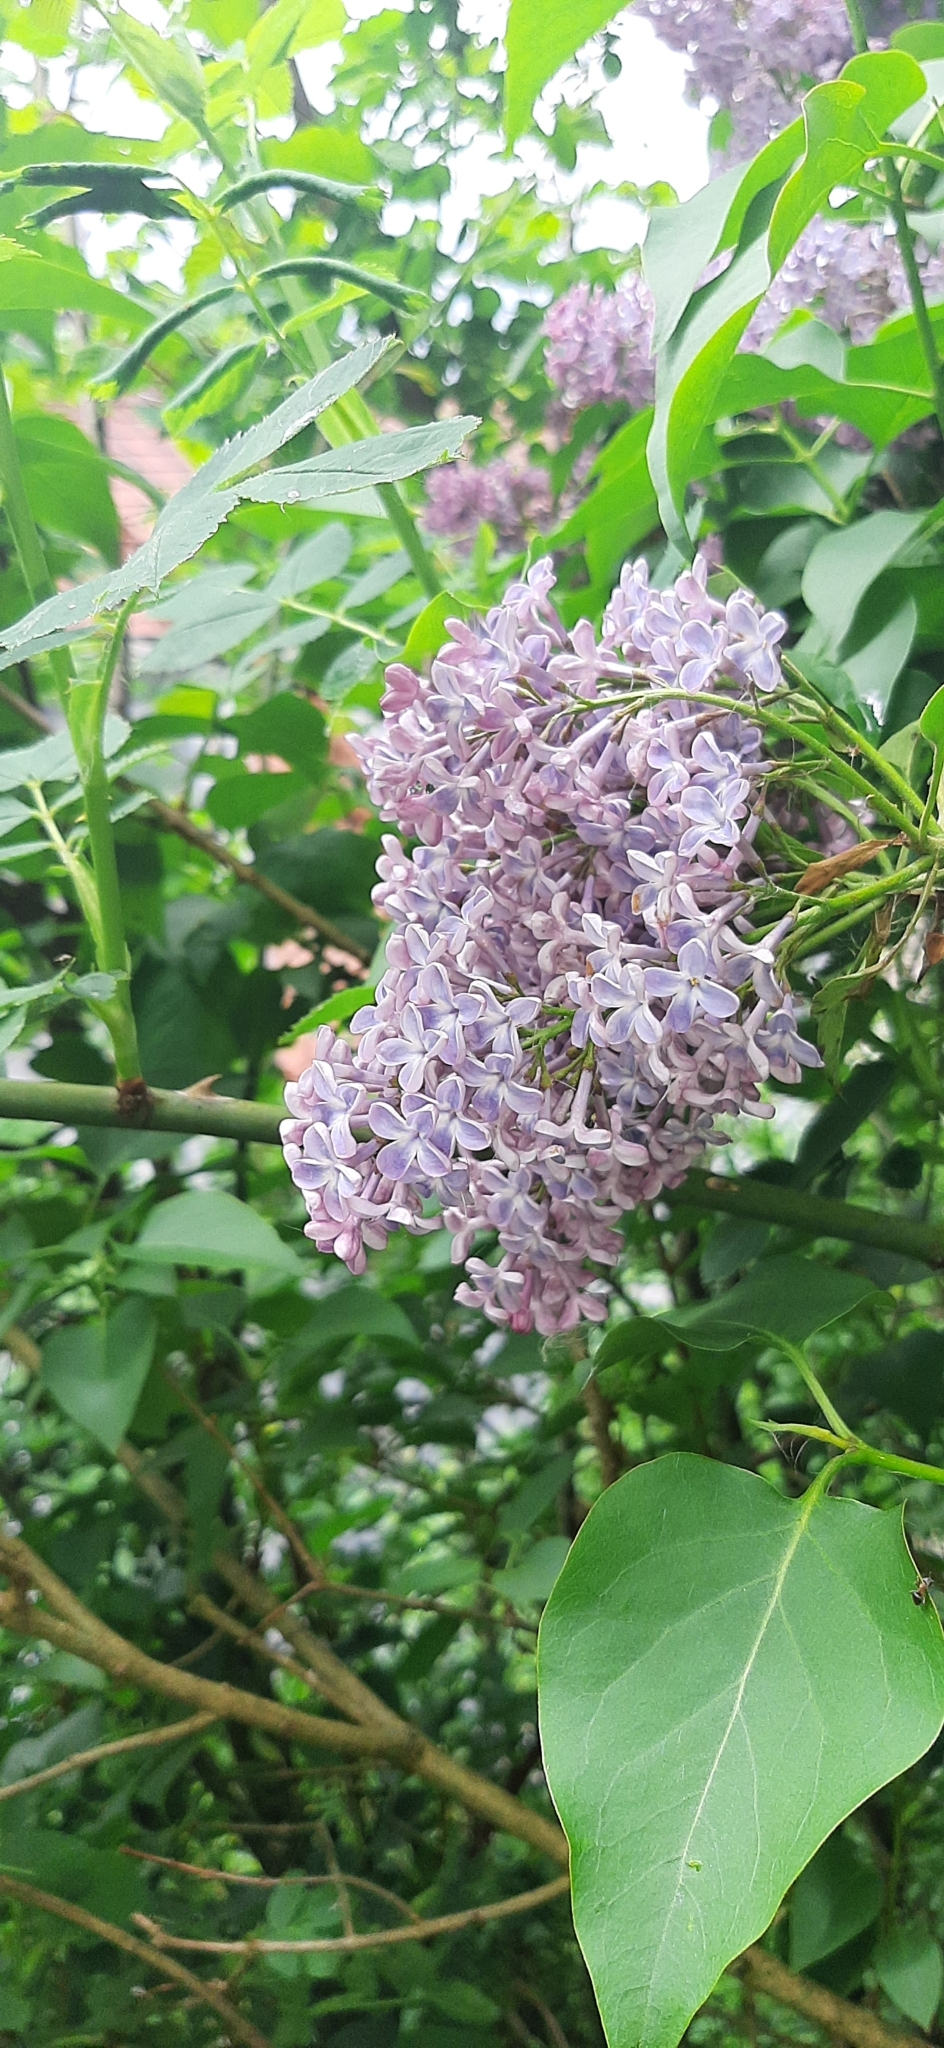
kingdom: Plantae
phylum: Tracheophyta
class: Magnoliopsida
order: Lamiales
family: Oleaceae
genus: Syringa
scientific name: Syringa vulgaris
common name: Common lilac
